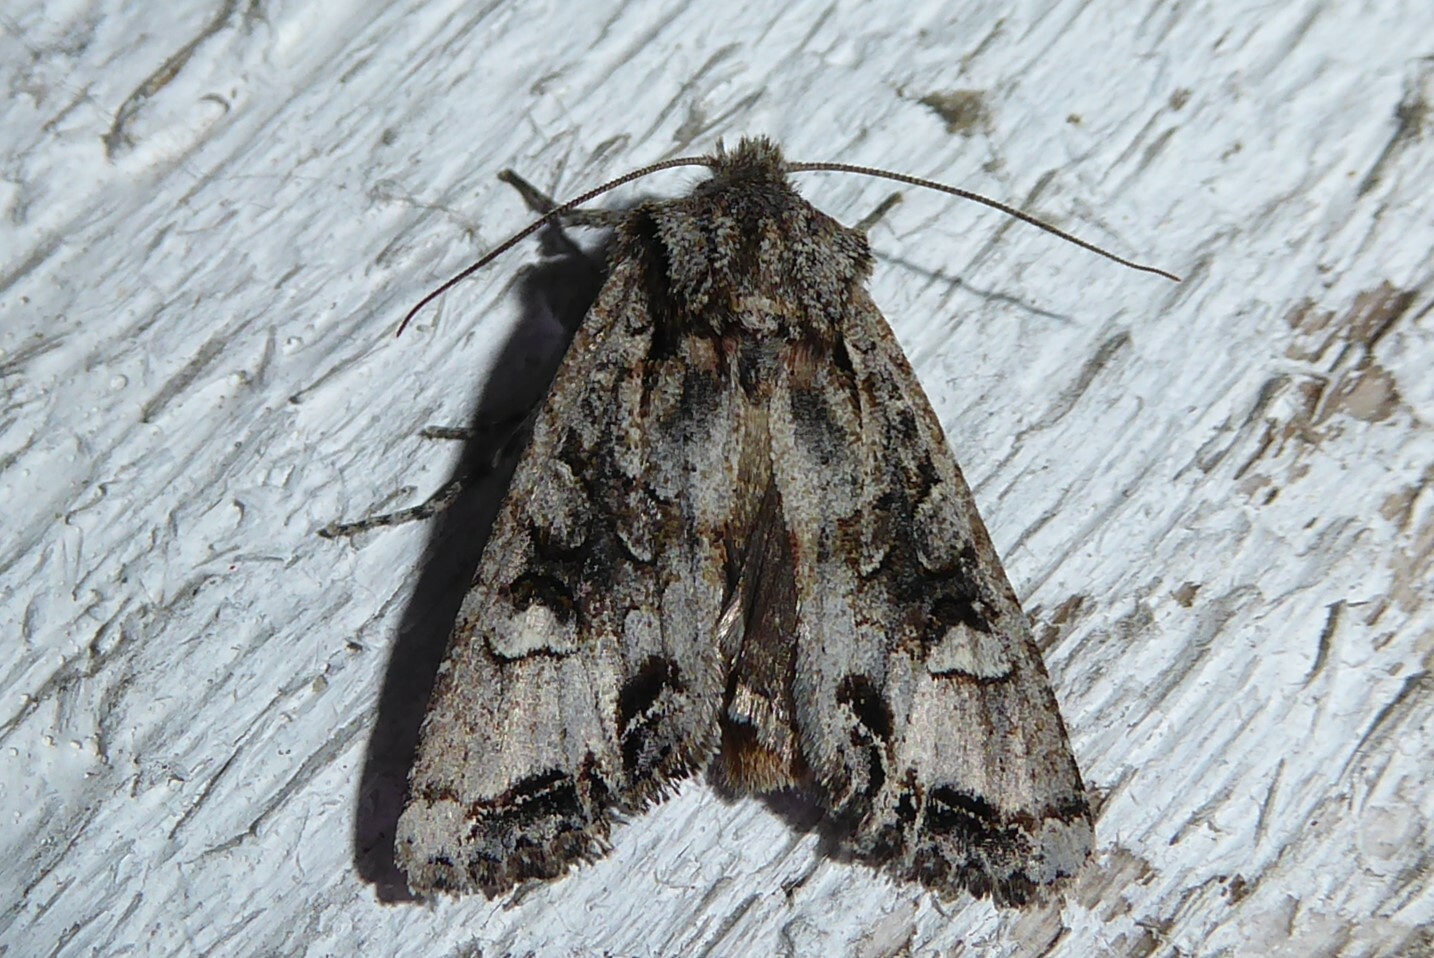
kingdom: Animalia
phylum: Arthropoda
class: Insecta
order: Lepidoptera
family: Noctuidae
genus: Ichneutica
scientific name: Ichneutica
